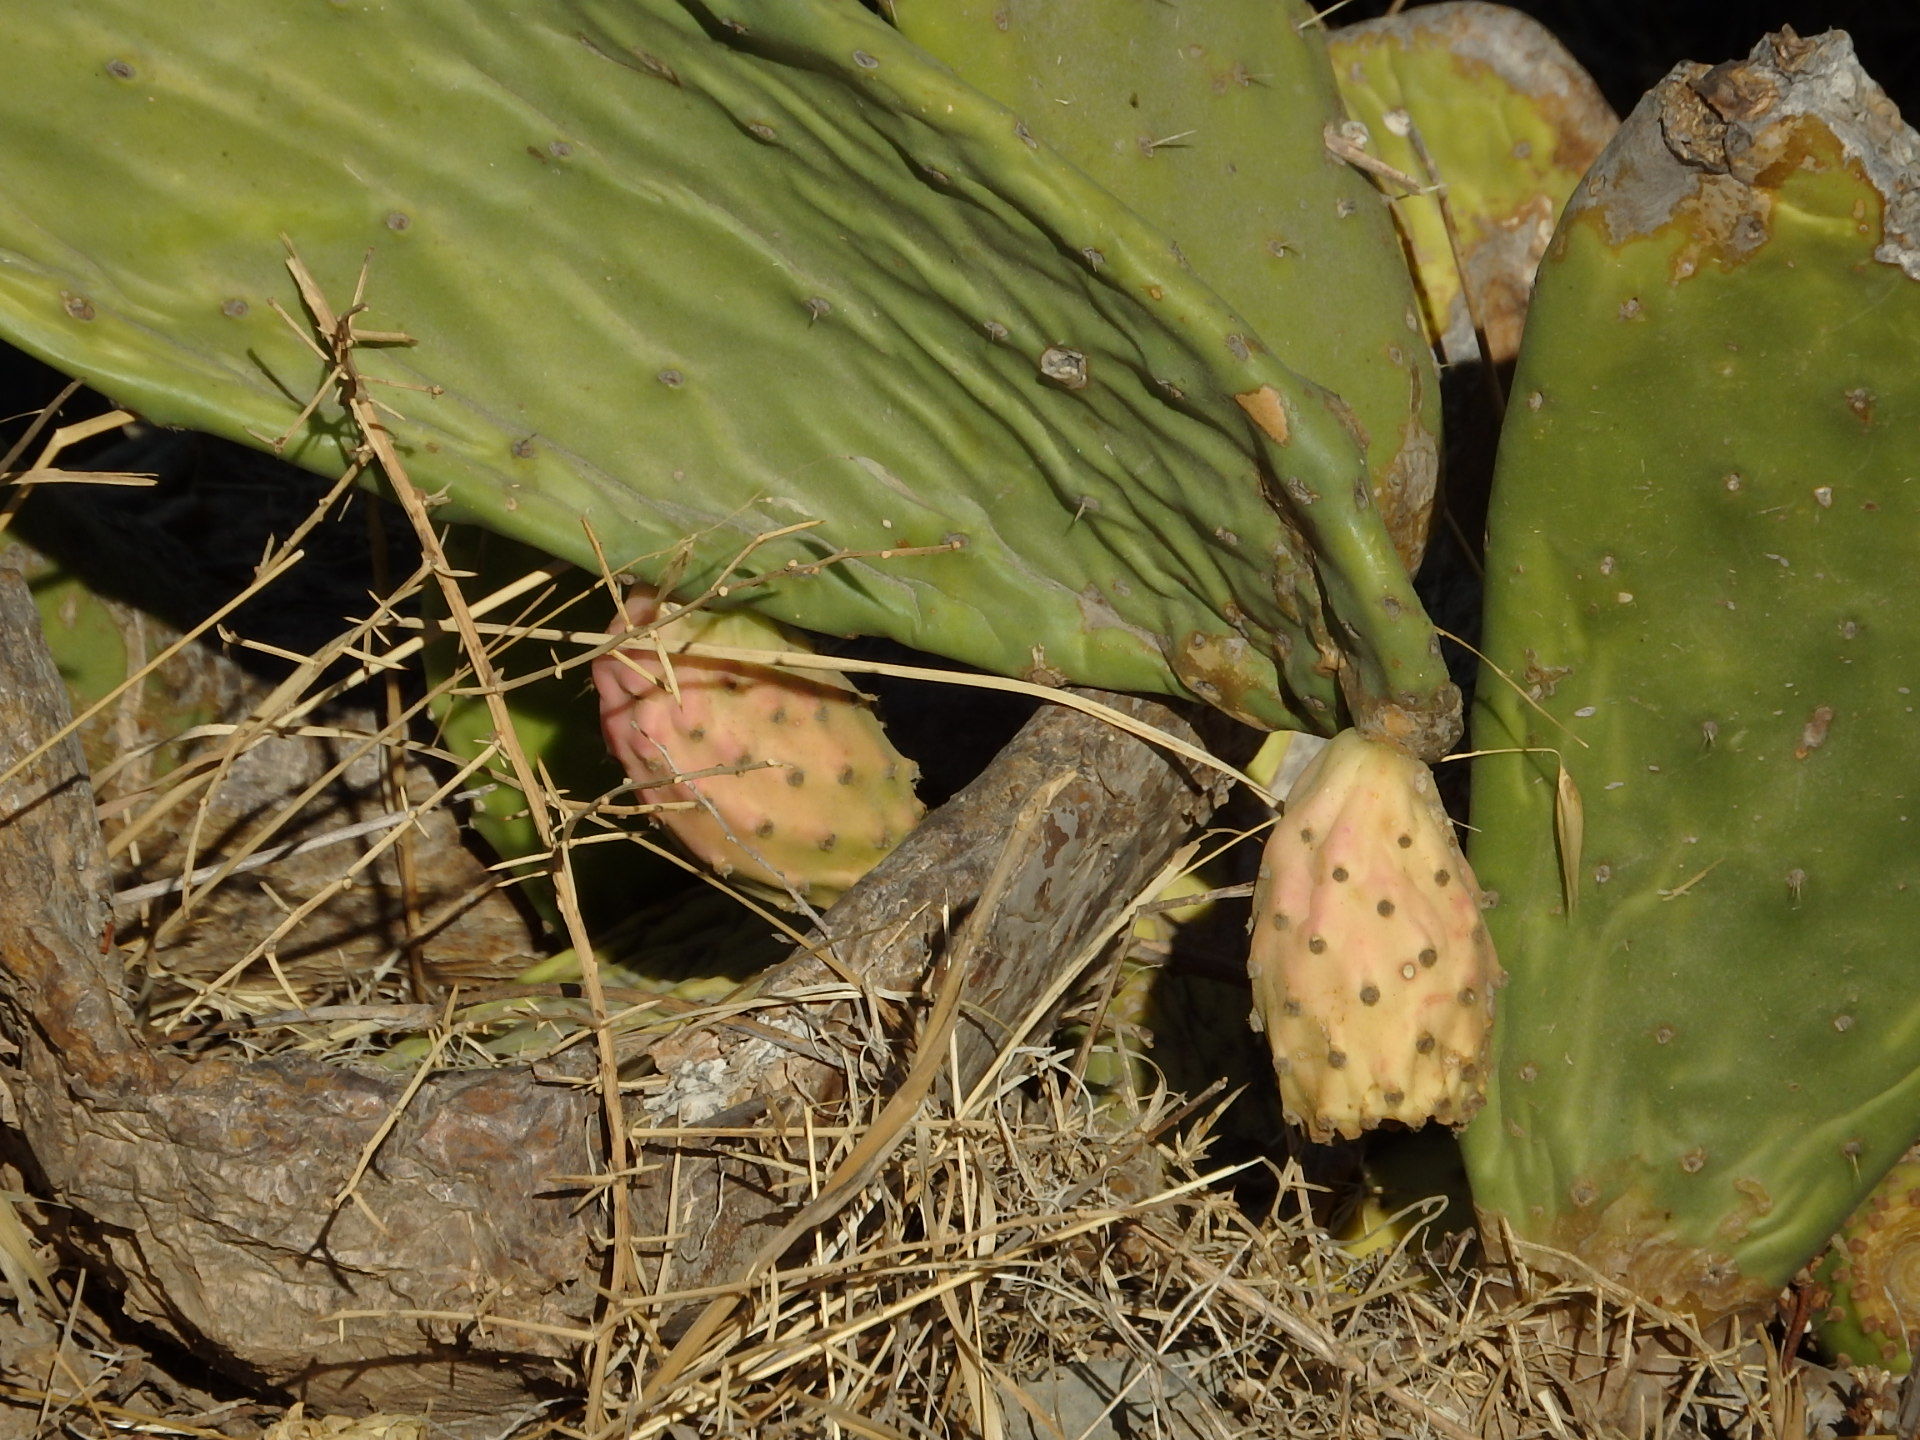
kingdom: Plantae
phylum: Tracheophyta
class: Magnoliopsida
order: Caryophyllales
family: Cactaceae
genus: Opuntia
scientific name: Opuntia ficus-indica
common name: Barbary fig
